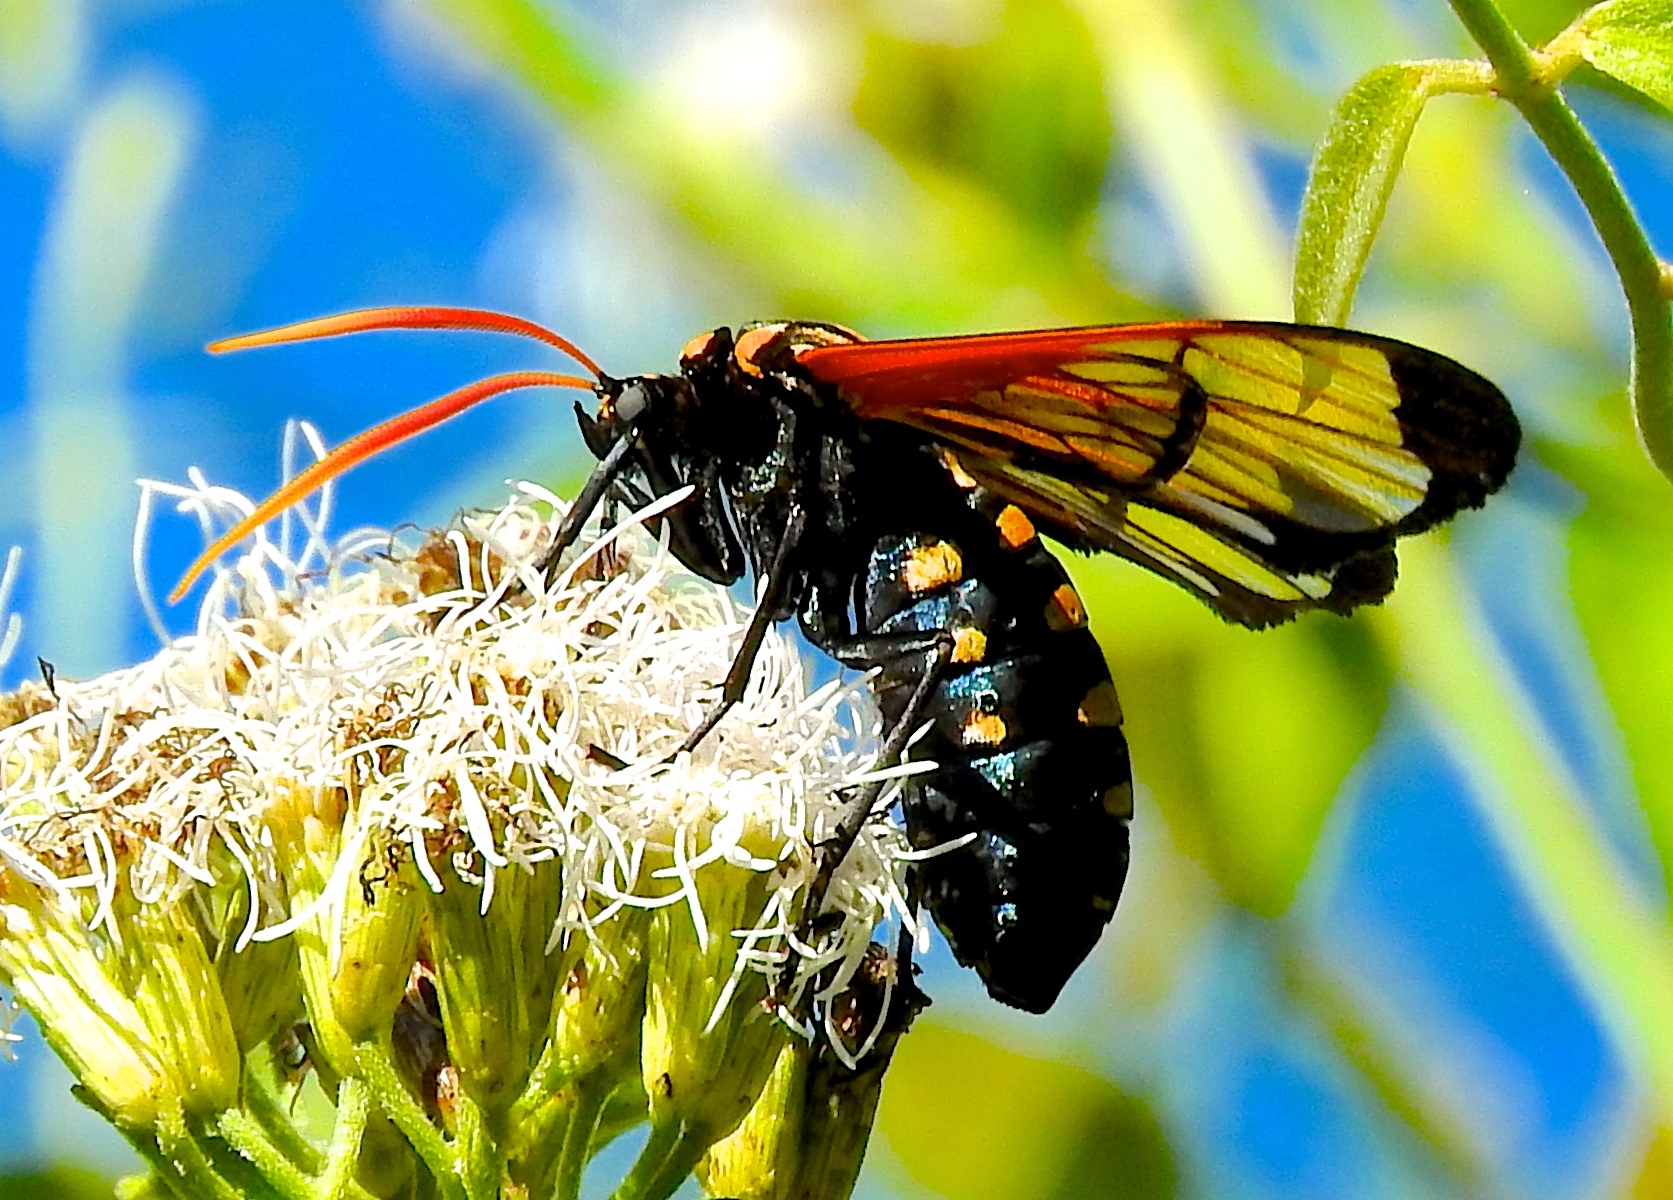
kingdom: Animalia
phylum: Arthropoda
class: Insecta
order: Lepidoptera
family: Erebidae
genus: Isanthrene
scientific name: Isanthrene
